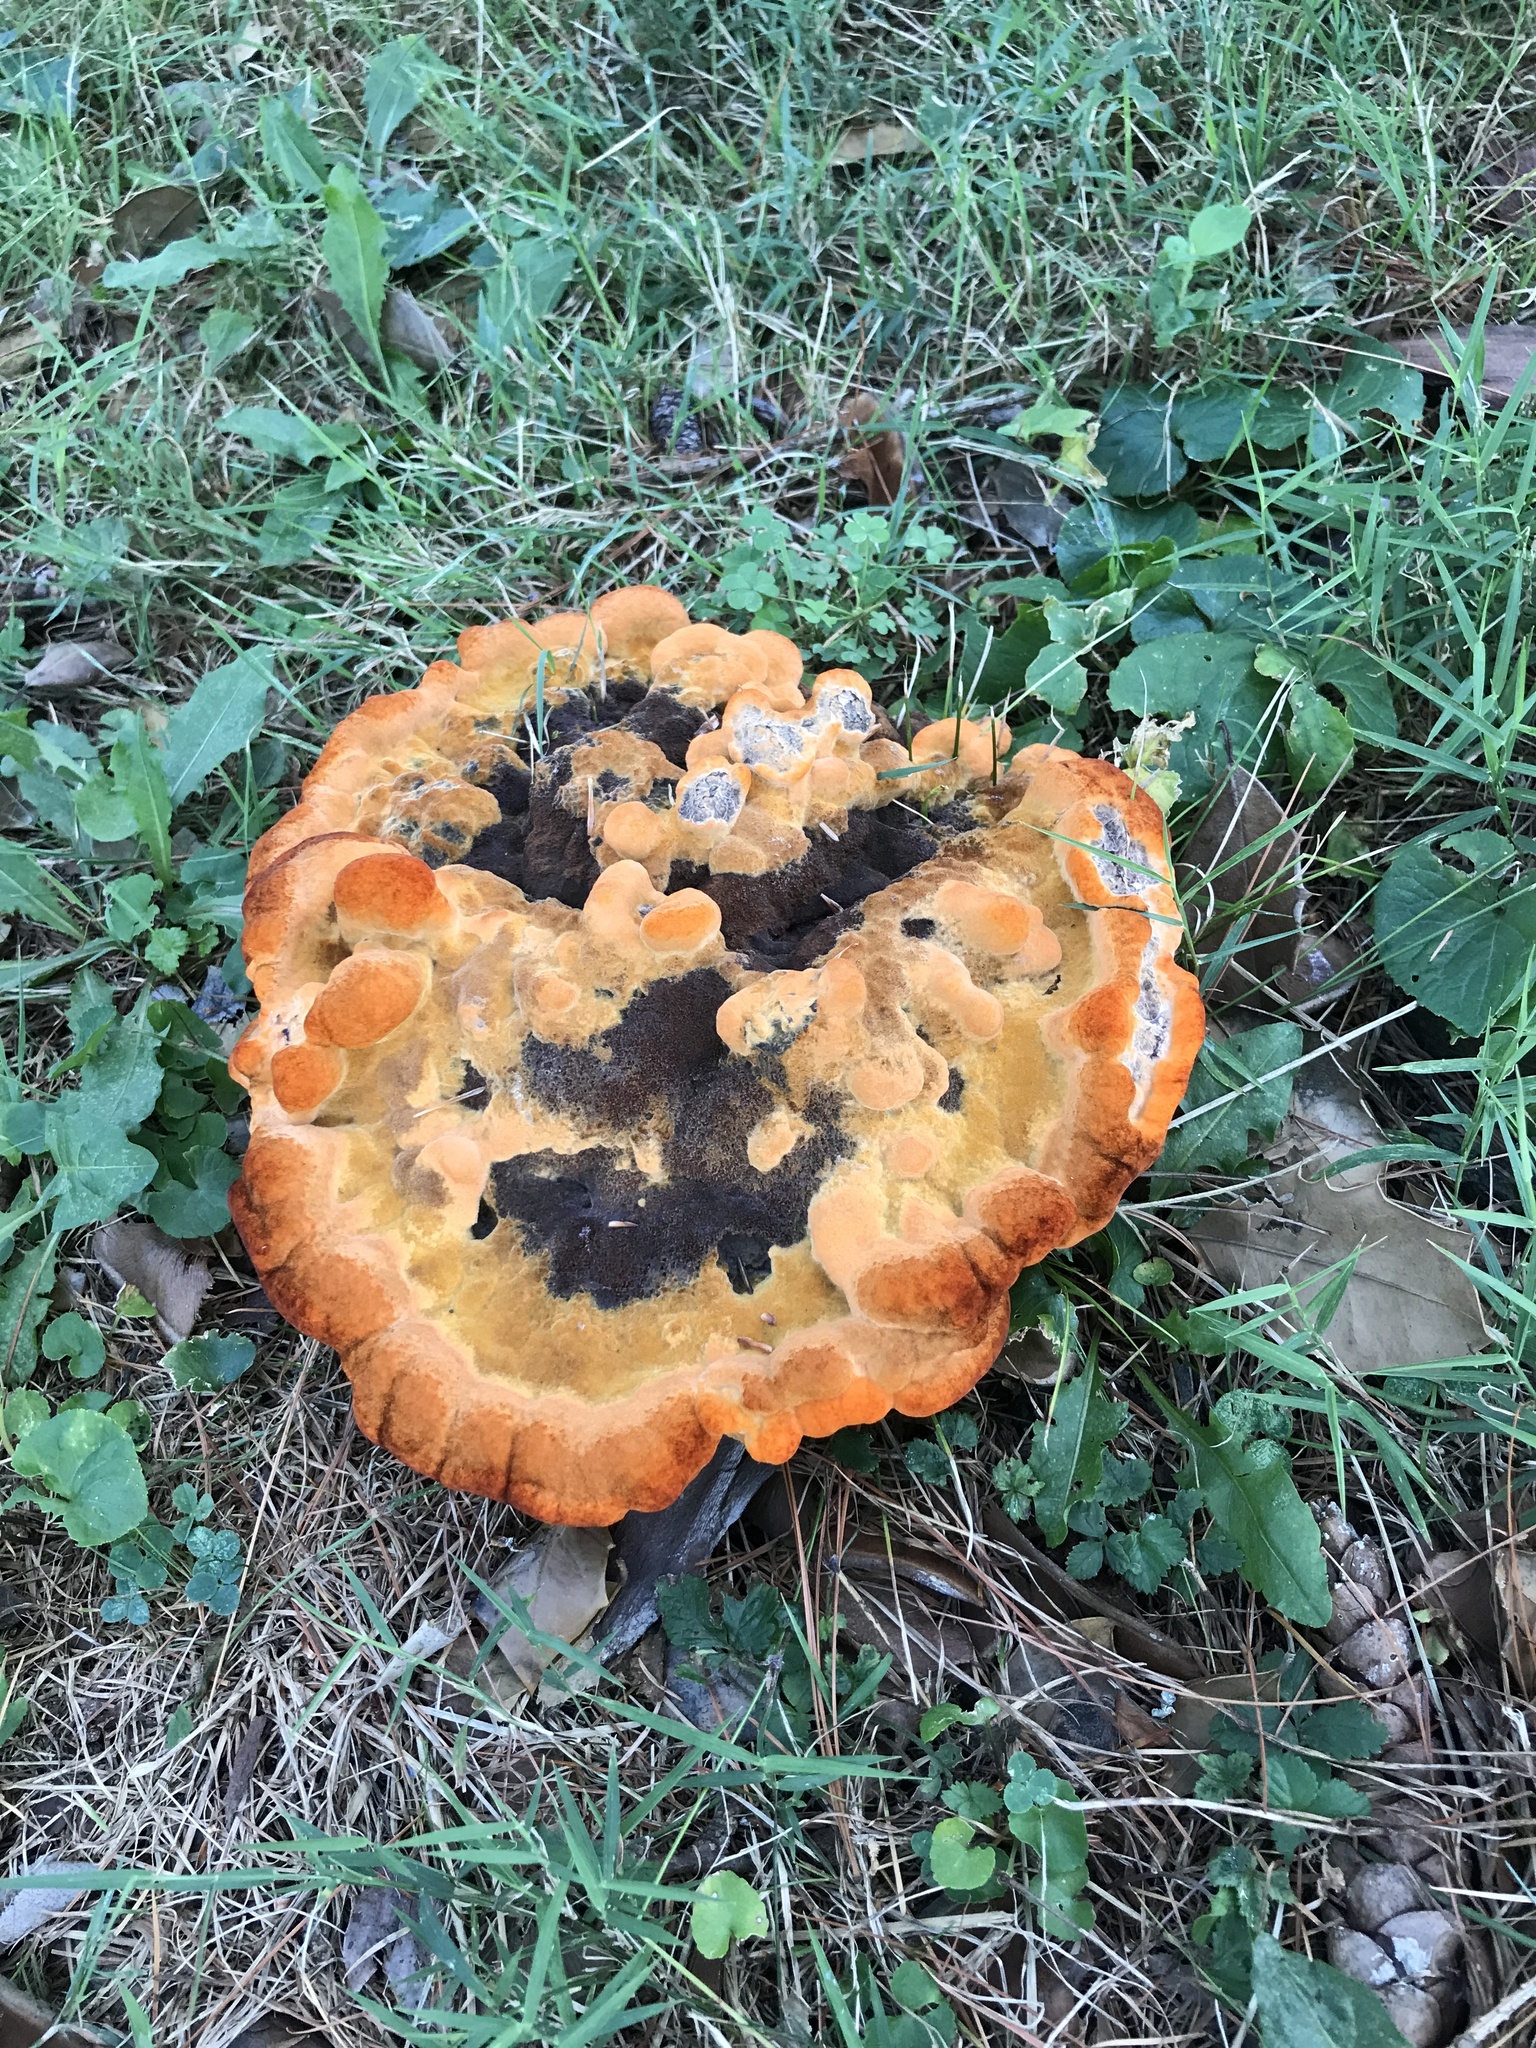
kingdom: Fungi
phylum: Basidiomycota
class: Agaricomycetes
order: Polyporales
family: Laetiporaceae
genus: Phaeolus
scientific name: Phaeolus schweinitzii
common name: Dyer's mazegill
